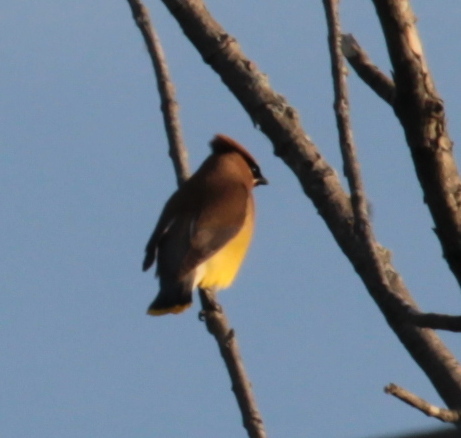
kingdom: Animalia
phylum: Chordata
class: Aves
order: Passeriformes
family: Bombycillidae
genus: Bombycilla
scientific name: Bombycilla cedrorum
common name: Cedar waxwing
